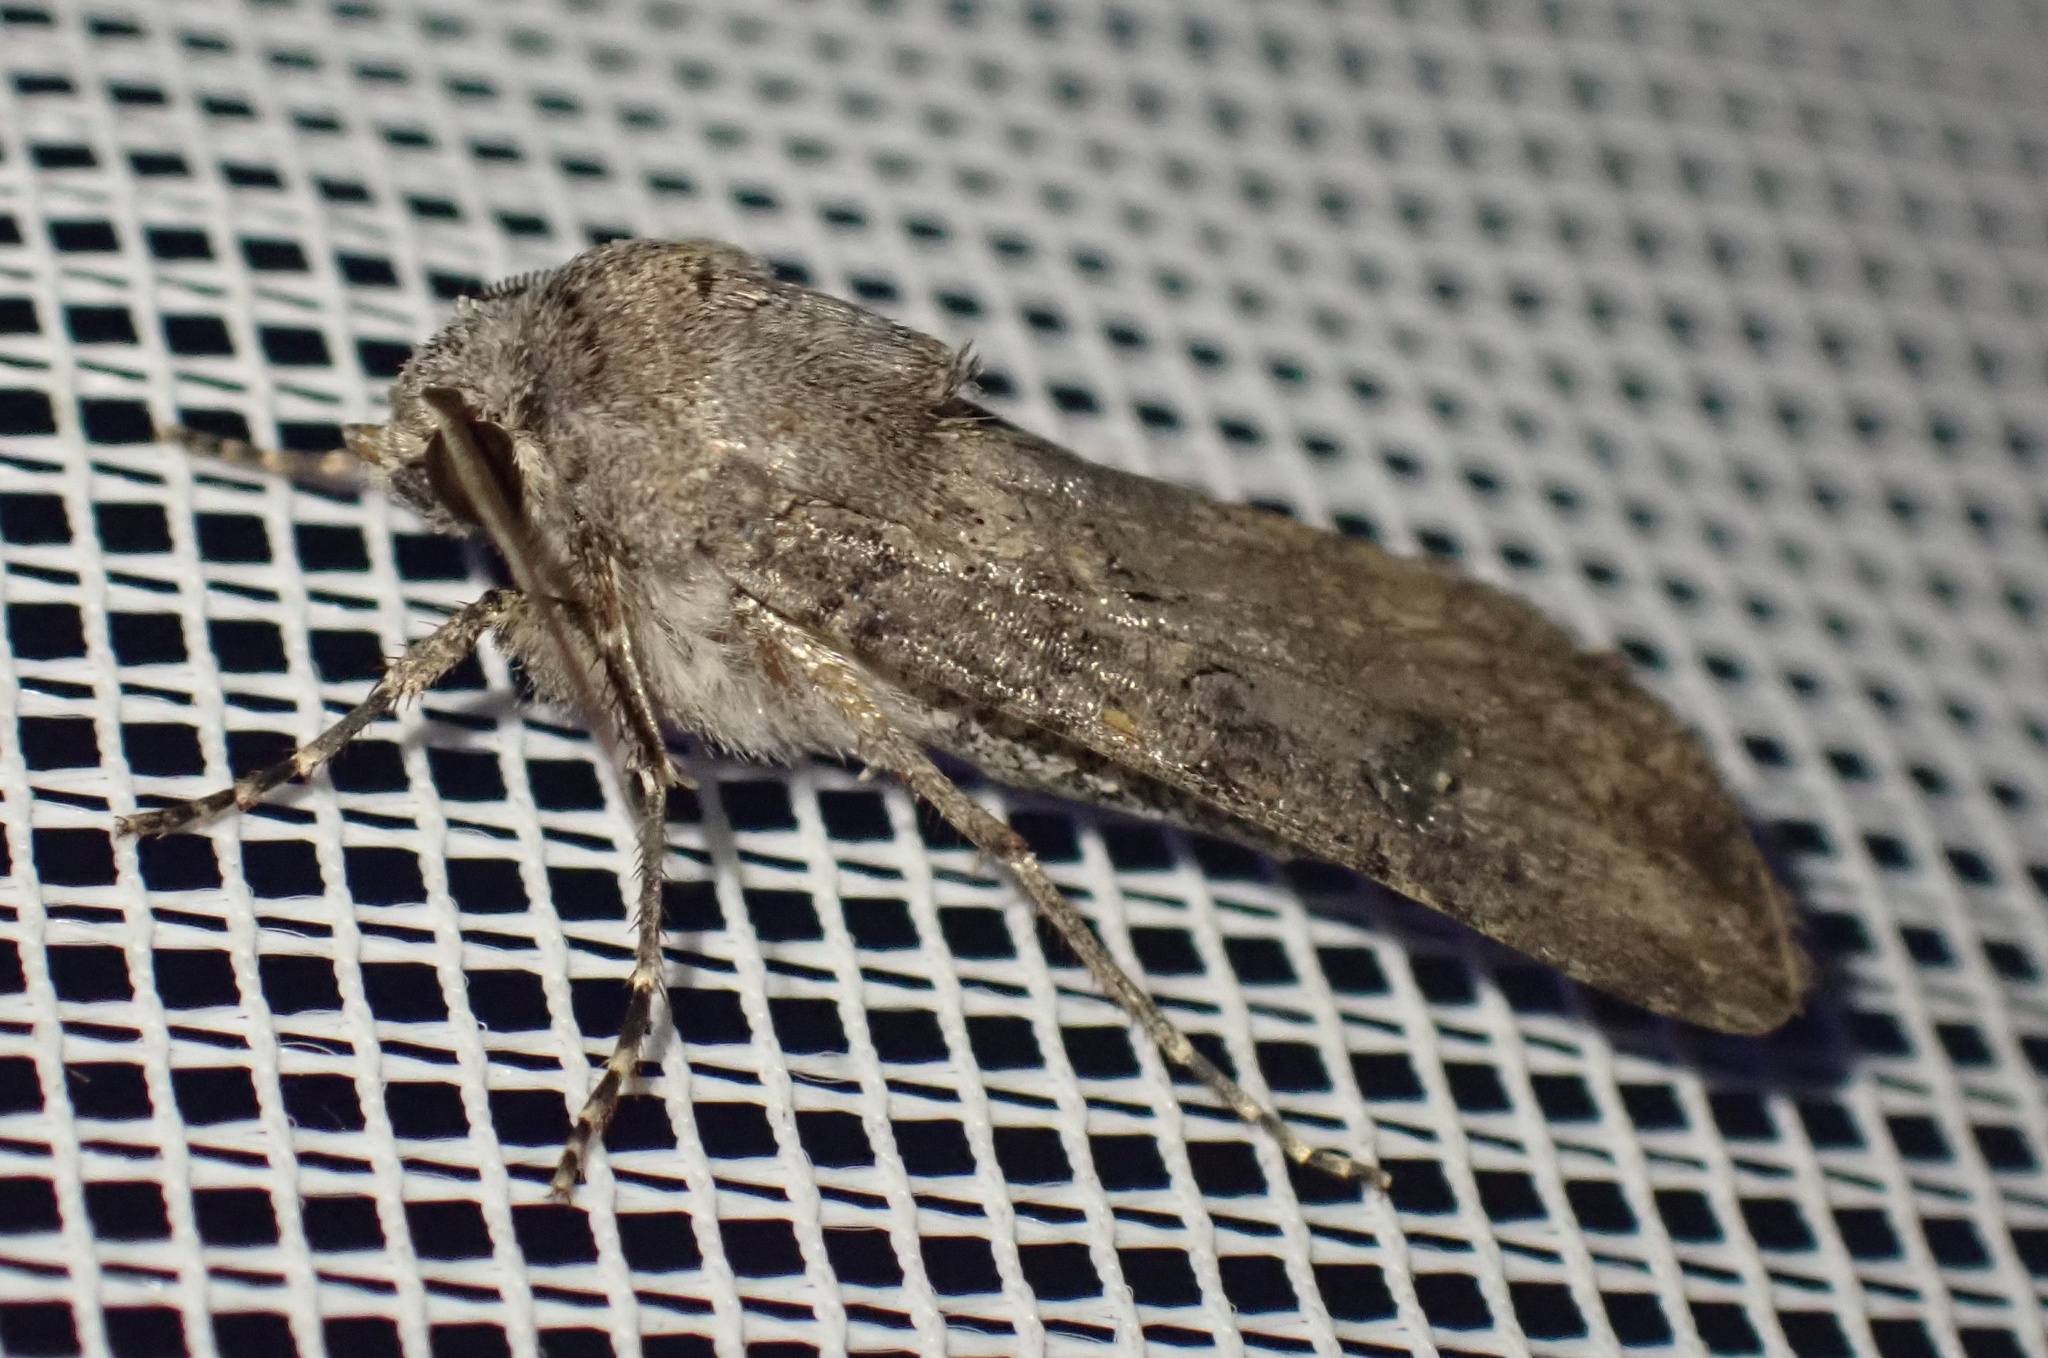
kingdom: Animalia
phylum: Arthropoda
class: Insecta
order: Lepidoptera
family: Noctuidae
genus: Agrotis
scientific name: Agrotis segetum
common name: Turnip moth
